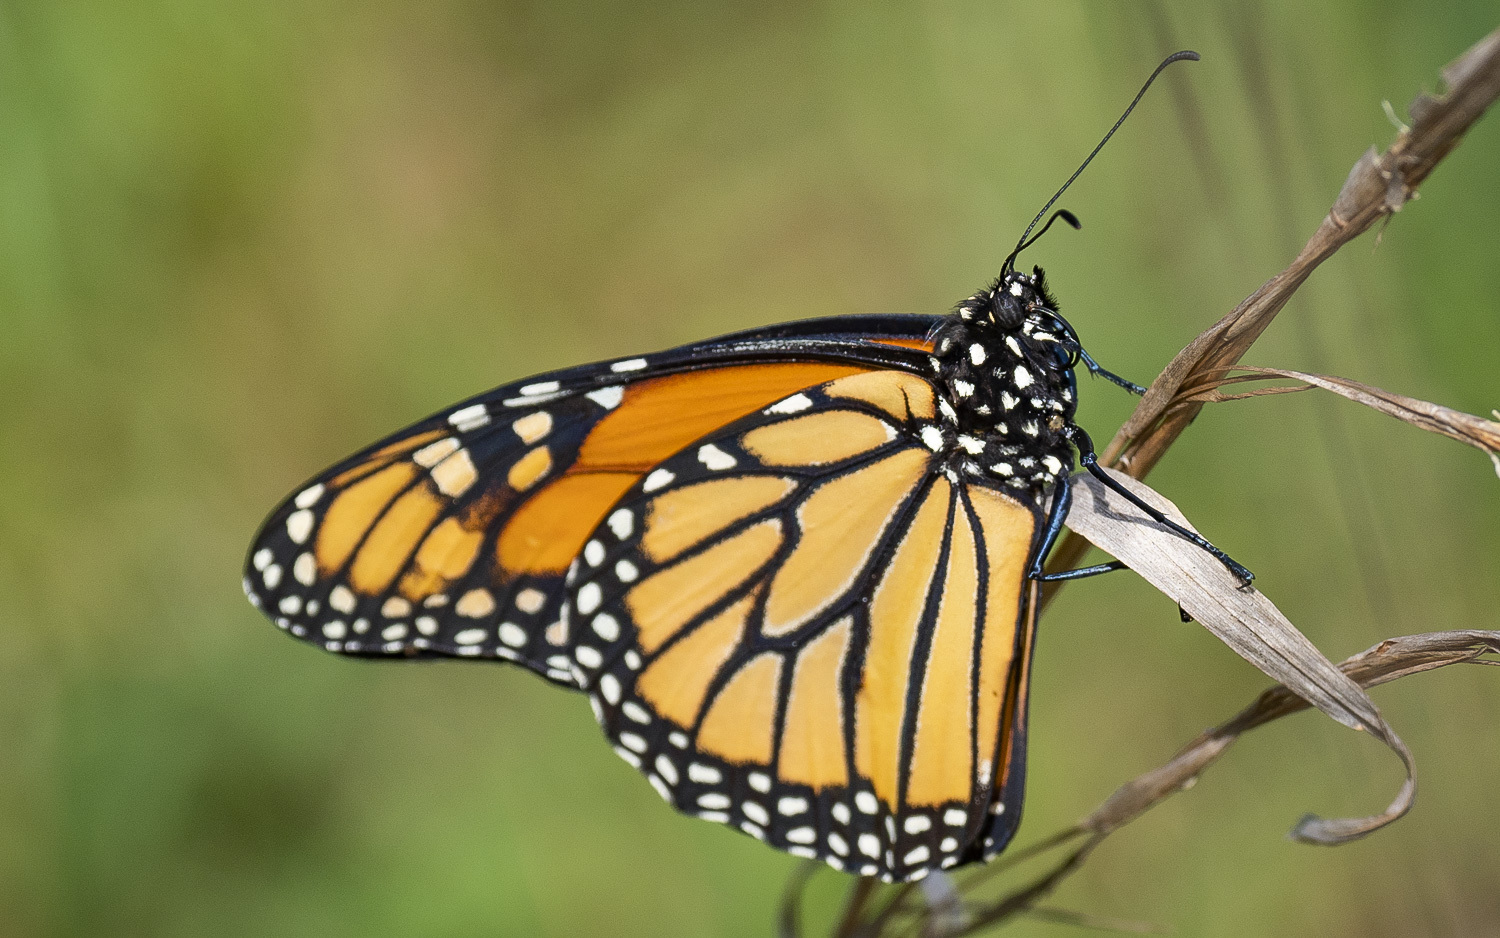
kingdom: Animalia
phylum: Arthropoda
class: Insecta
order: Lepidoptera
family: Nymphalidae
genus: Danaus
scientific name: Danaus plexippus
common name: Monarch
